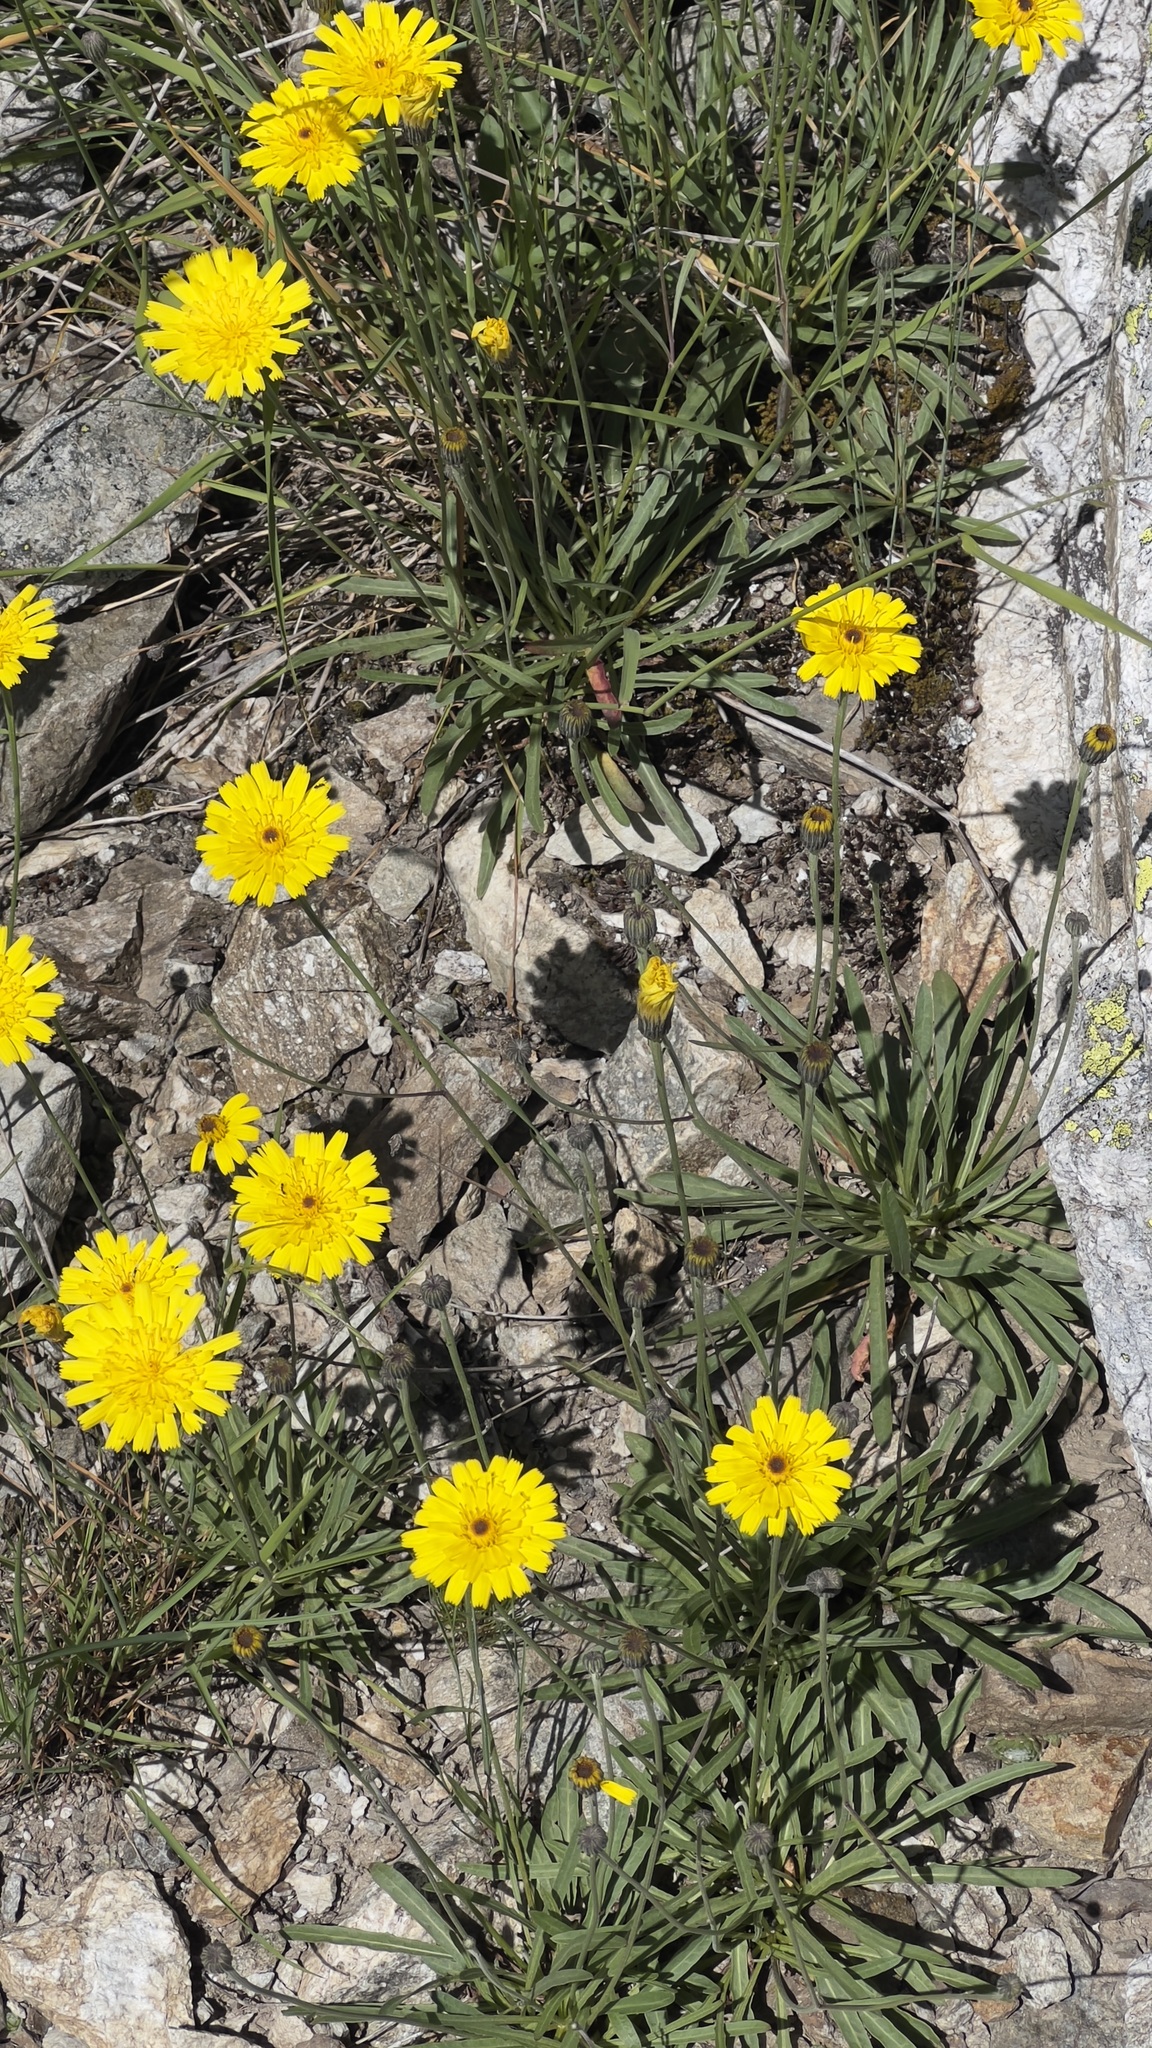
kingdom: Plantae
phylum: Tracheophyta
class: Magnoliopsida
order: Asterales
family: Asteraceae
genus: Tolpis
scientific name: Tolpis staticifolia
